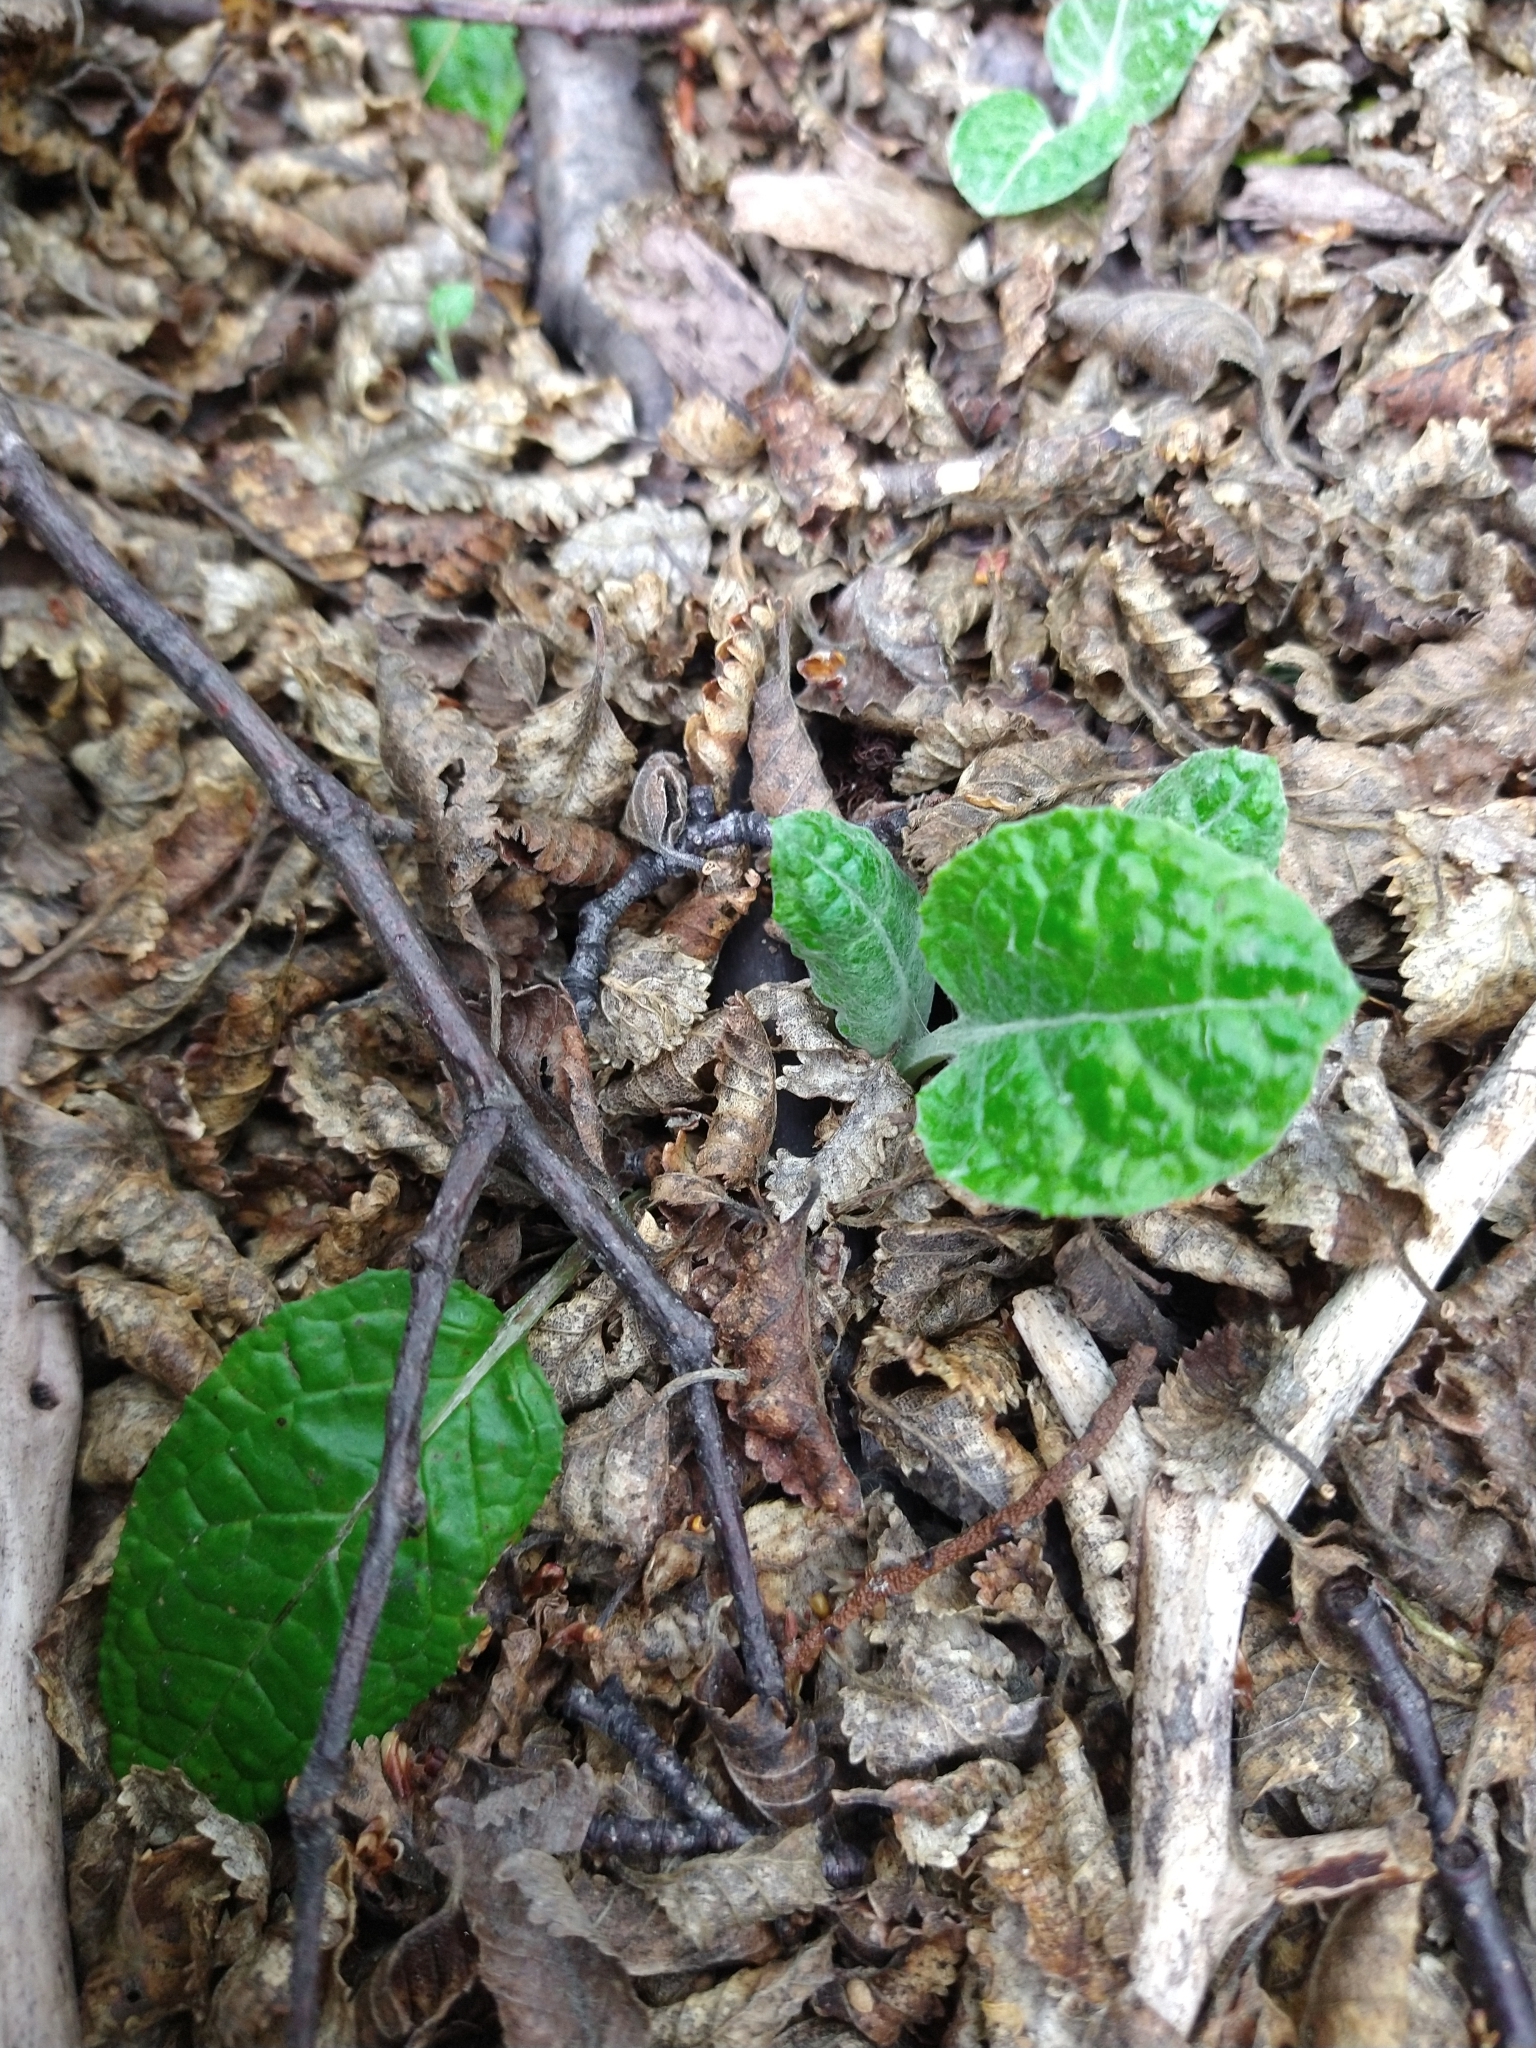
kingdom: Plantae
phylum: Tracheophyta
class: Magnoliopsida
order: Asterales
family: Asteraceae
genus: Adenocaulon
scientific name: Adenocaulon chilense
